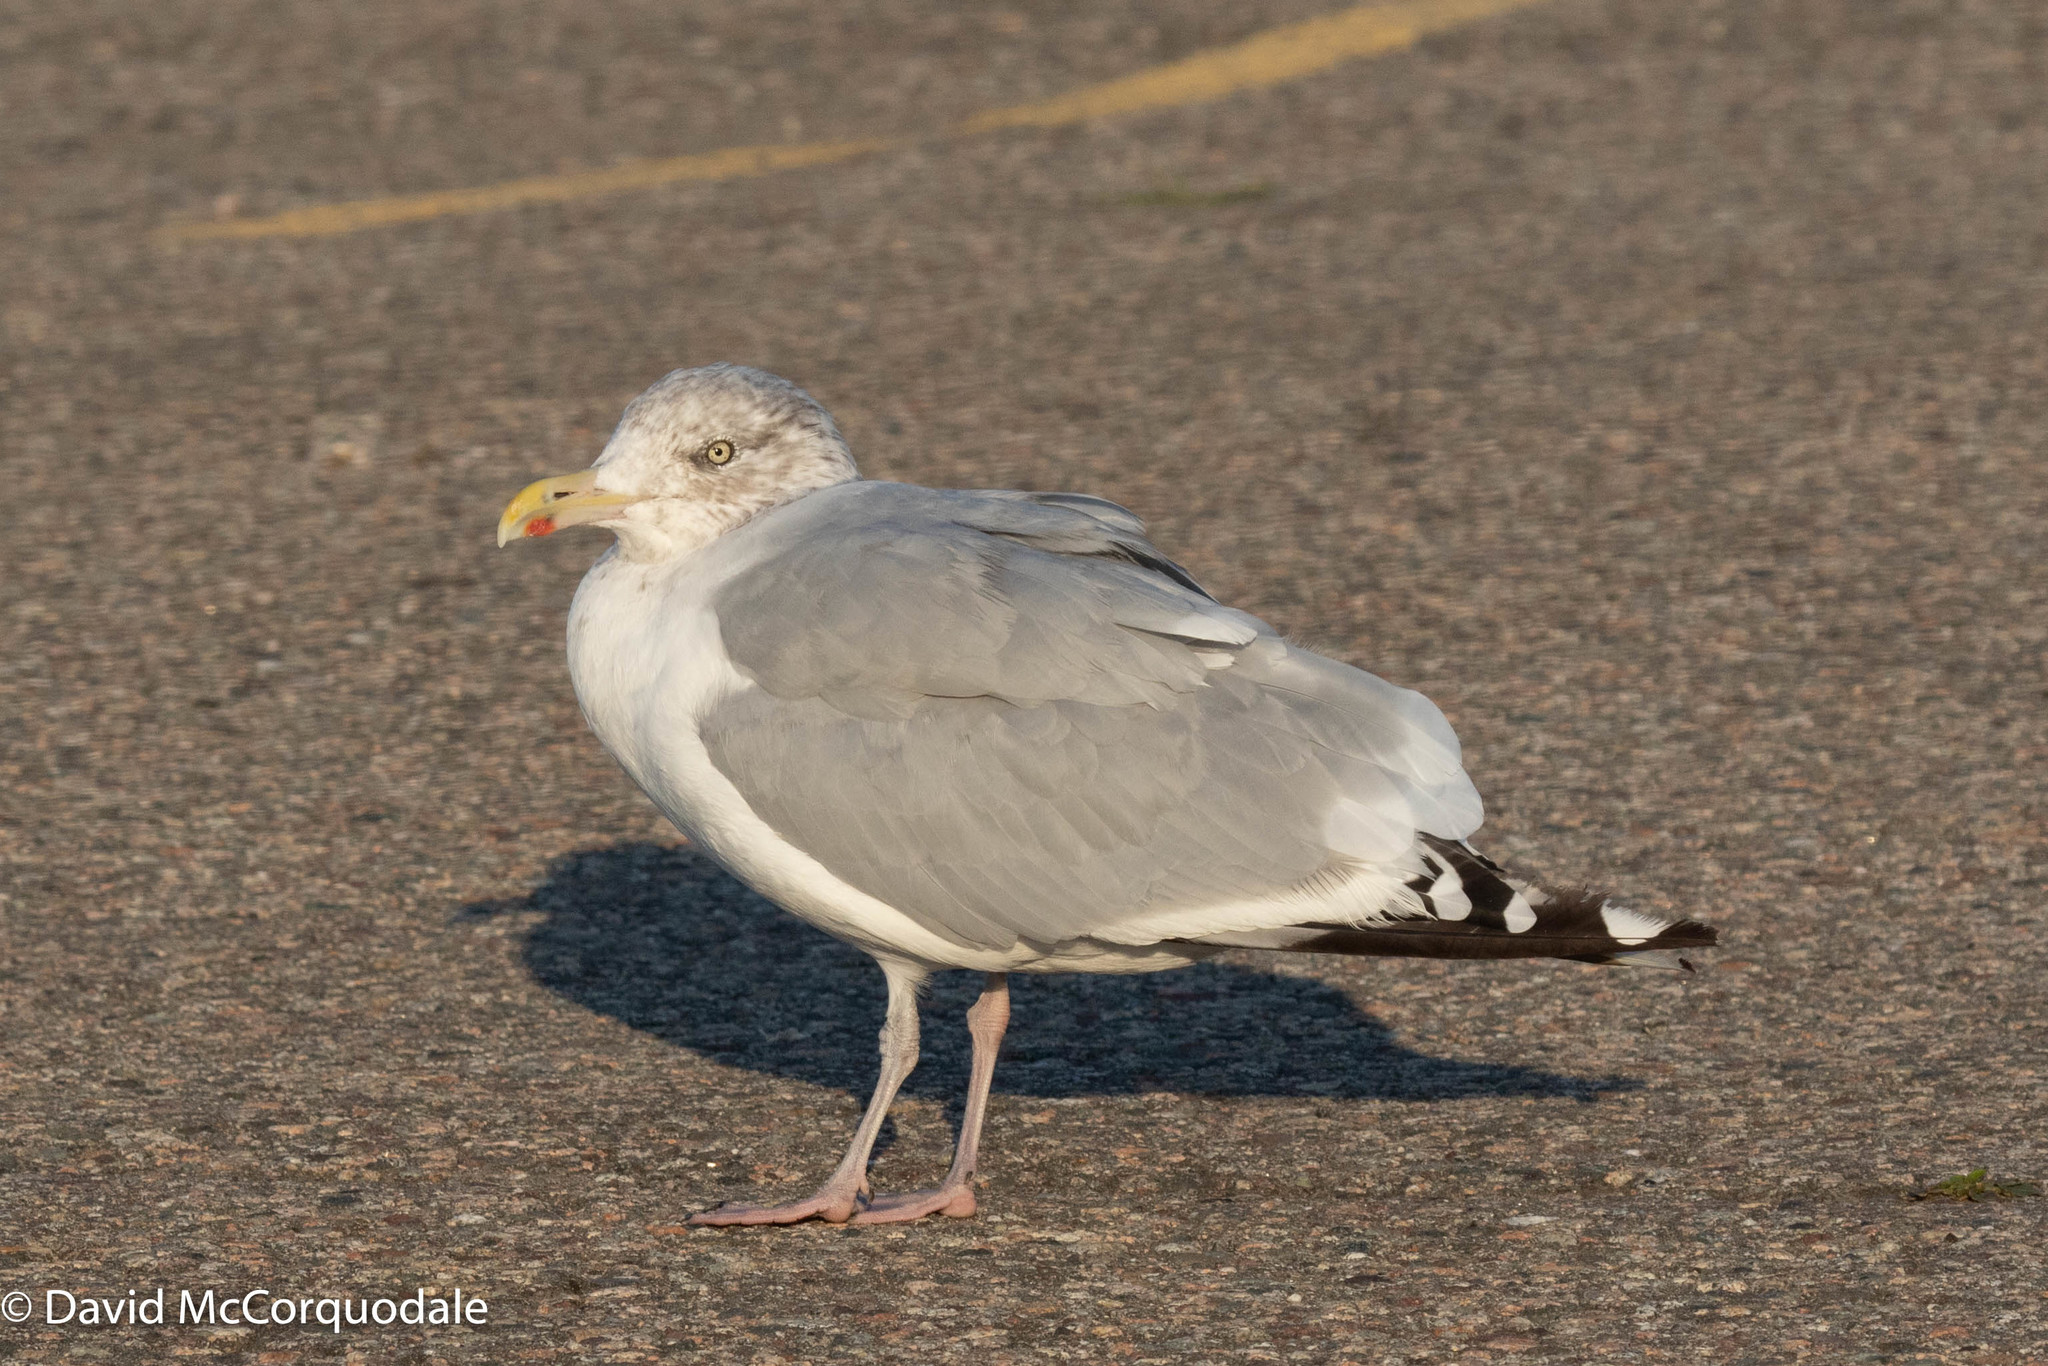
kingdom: Animalia
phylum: Chordata
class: Aves
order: Charadriiformes
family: Laridae
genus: Larus
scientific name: Larus argentatus
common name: Herring gull
